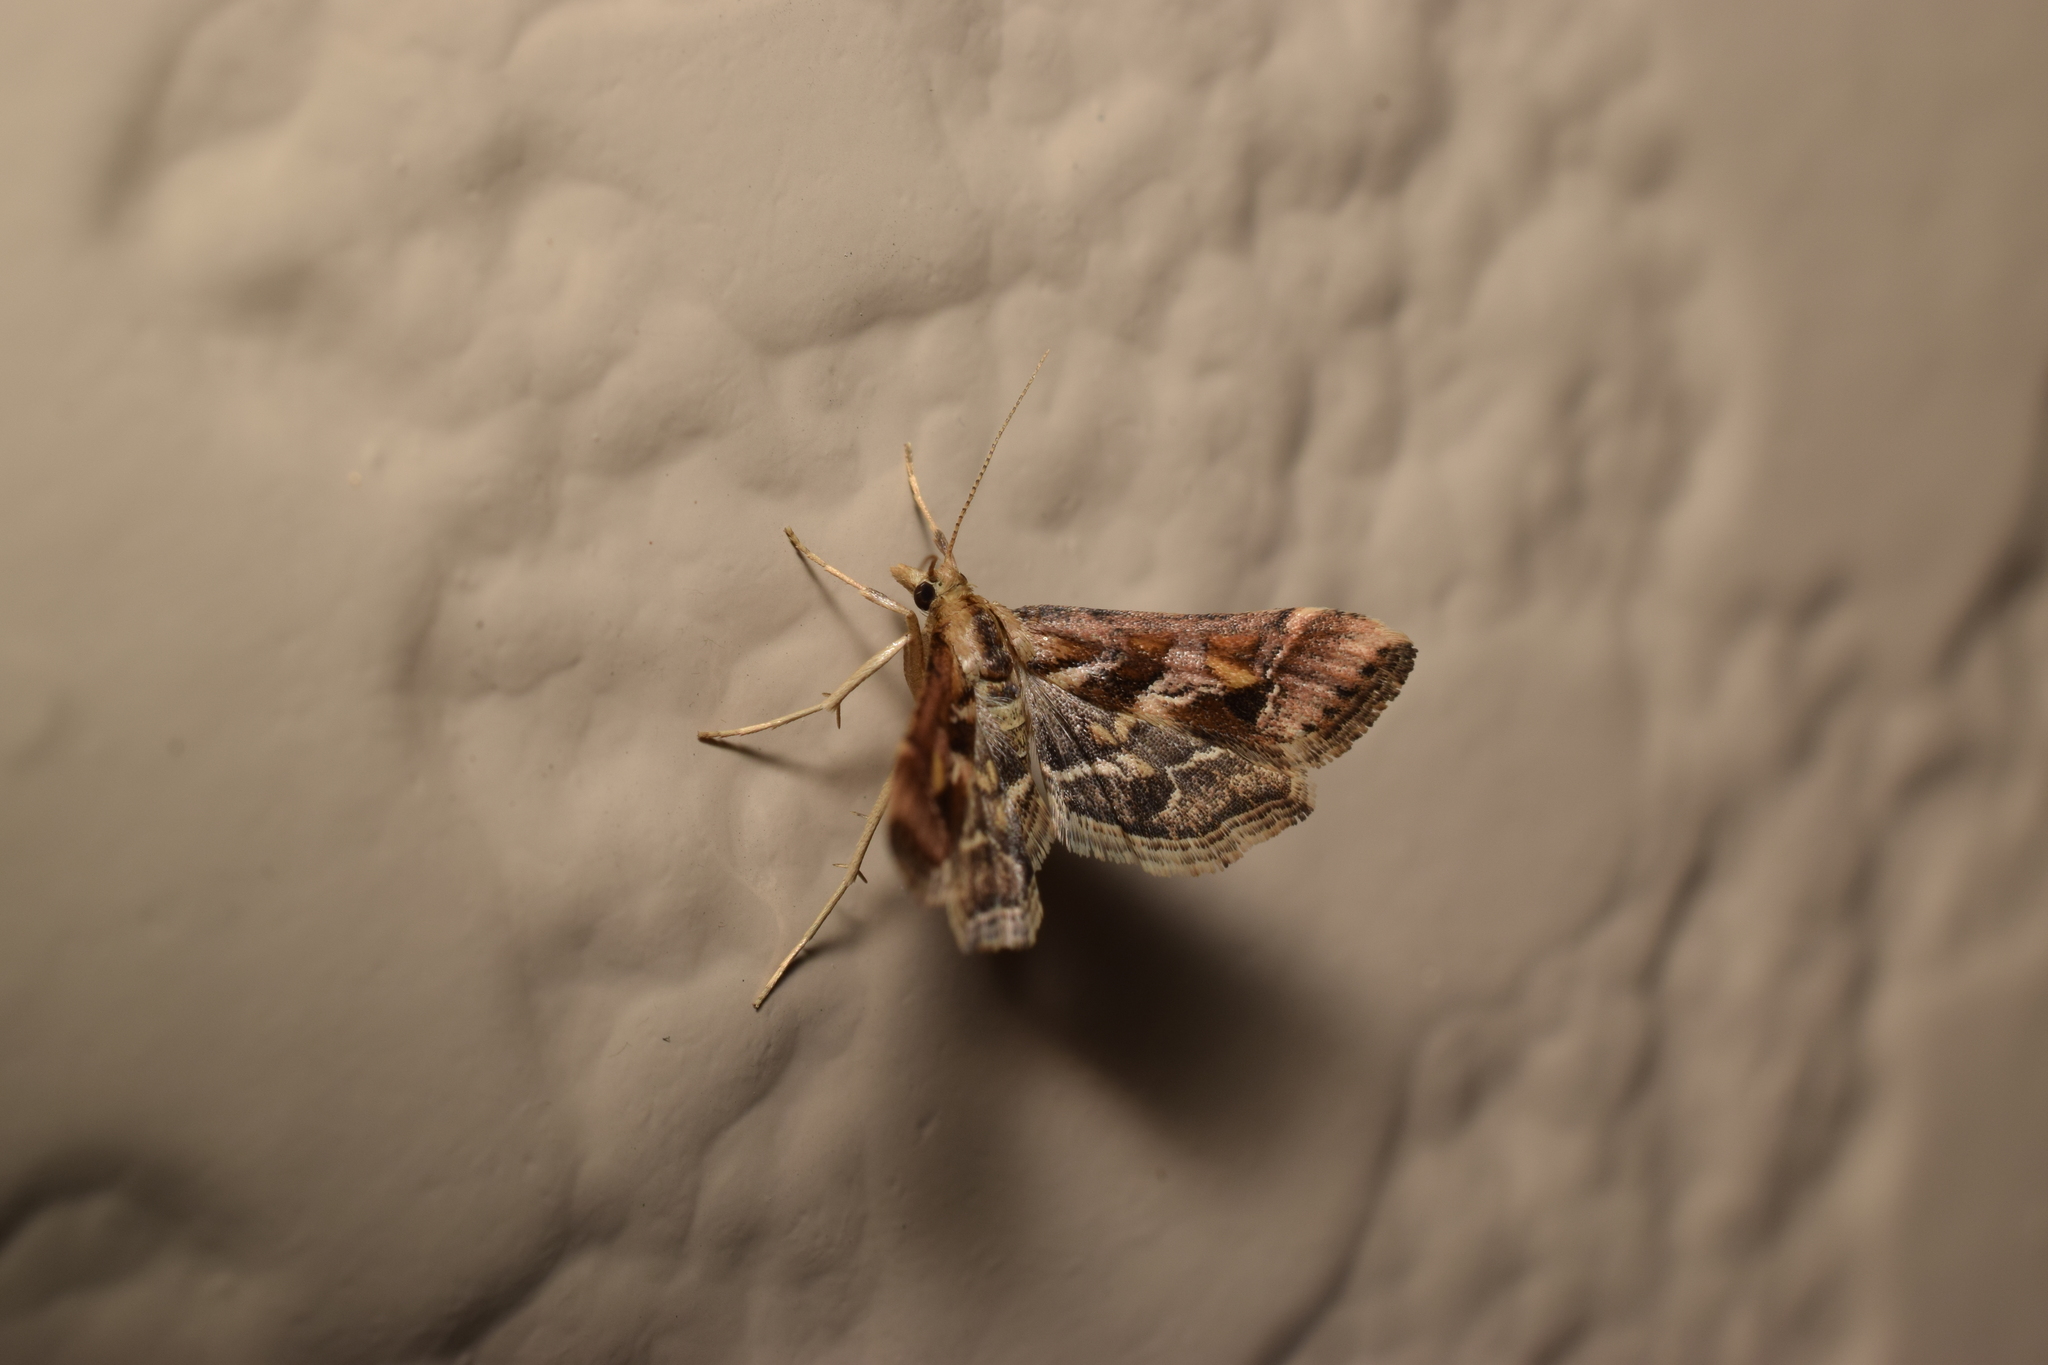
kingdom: Animalia
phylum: Arthropoda
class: Insecta
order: Lepidoptera
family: Crambidae
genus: Diasemia
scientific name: Diasemia accalis
